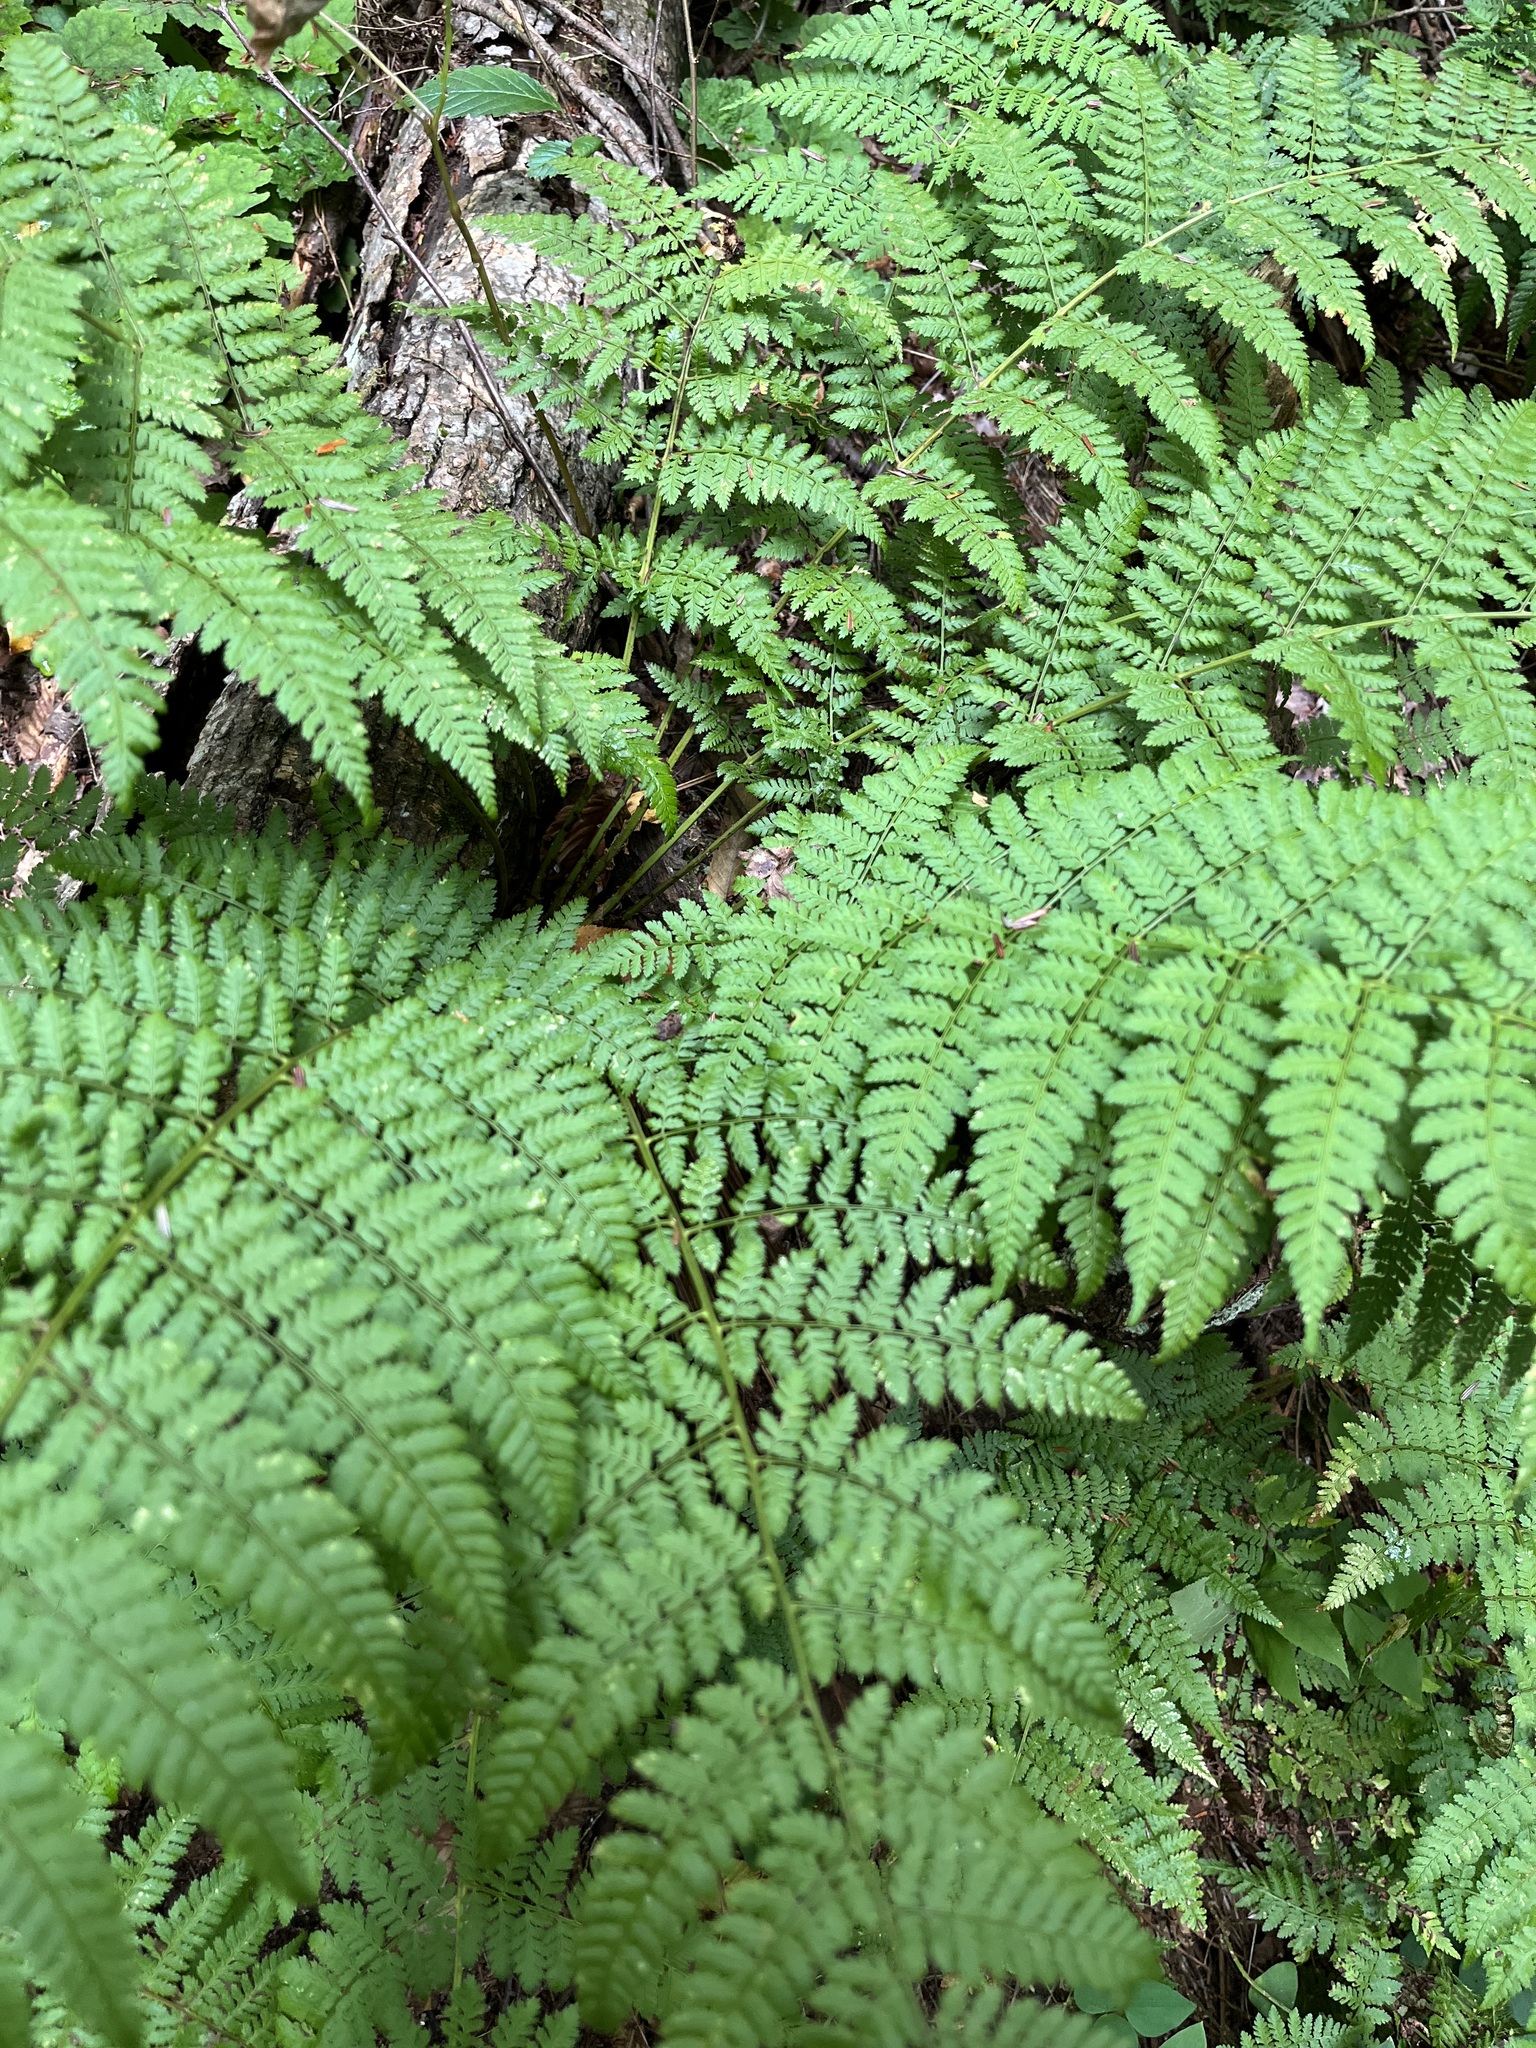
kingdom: Plantae
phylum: Tracheophyta
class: Polypodiopsida
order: Polypodiales
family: Dryopteridaceae
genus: Dryopteris
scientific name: Dryopteris intermedia
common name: Evergreen wood fern
